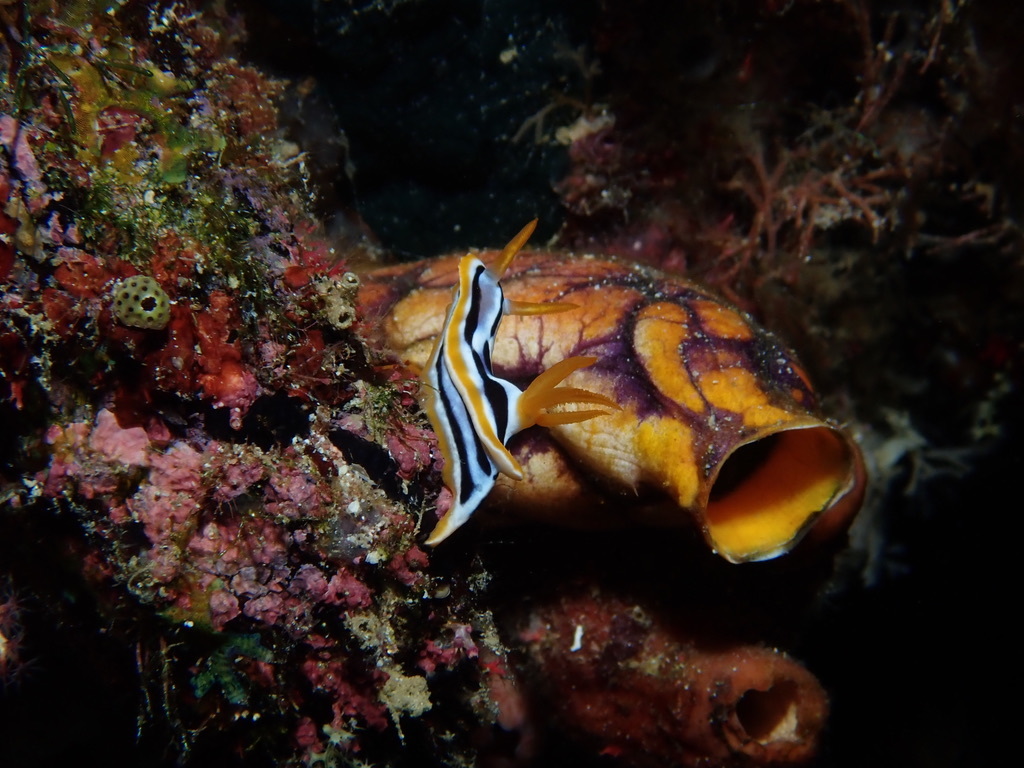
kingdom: Animalia
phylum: Mollusca
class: Gastropoda
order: Nudibranchia
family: Chromodorididae
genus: Chromodoris
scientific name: Chromodoris strigata
